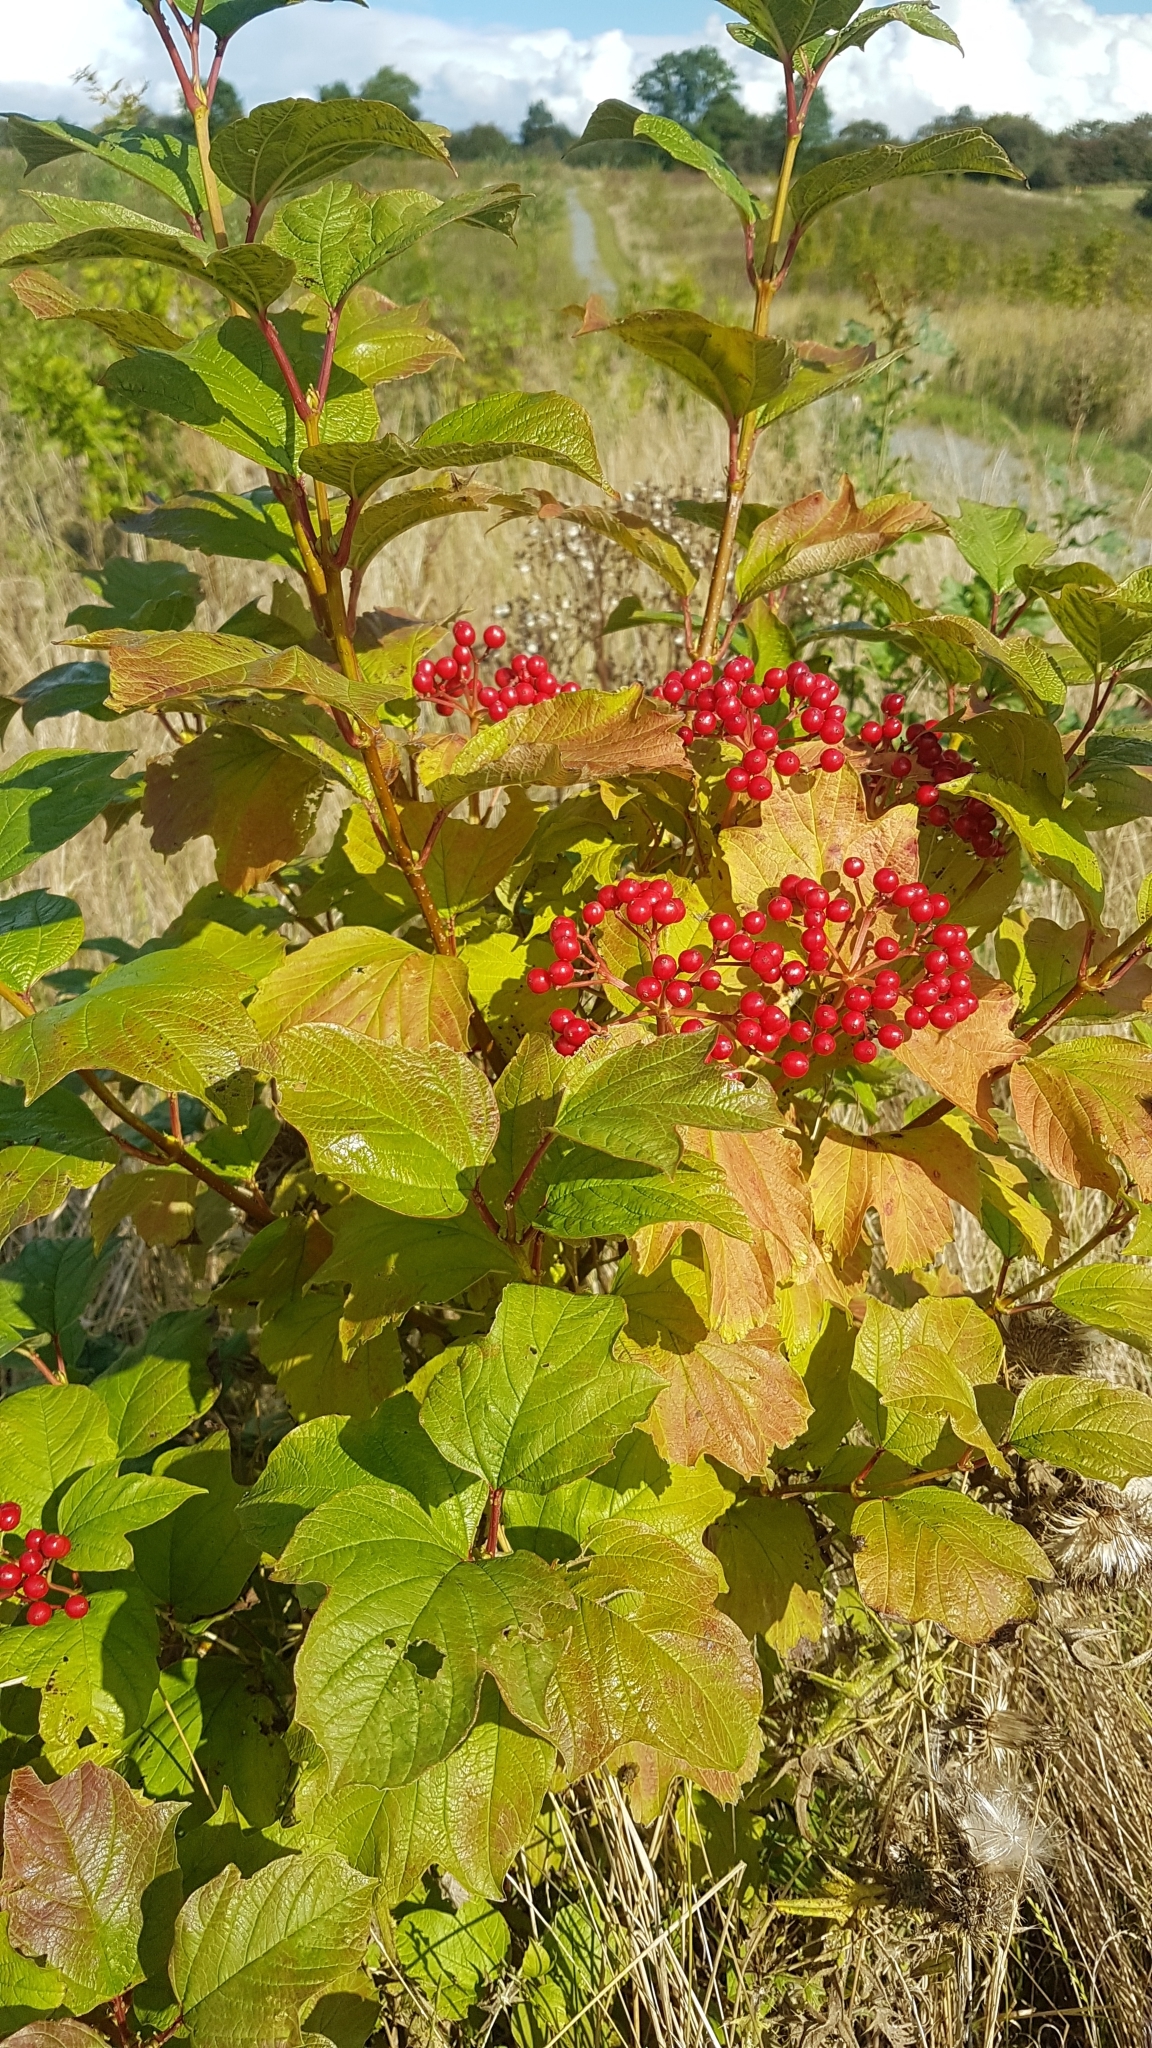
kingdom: Plantae
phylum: Tracheophyta
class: Magnoliopsida
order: Dipsacales
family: Viburnaceae
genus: Viburnum
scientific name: Viburnum opulus
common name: Guelder-rose
